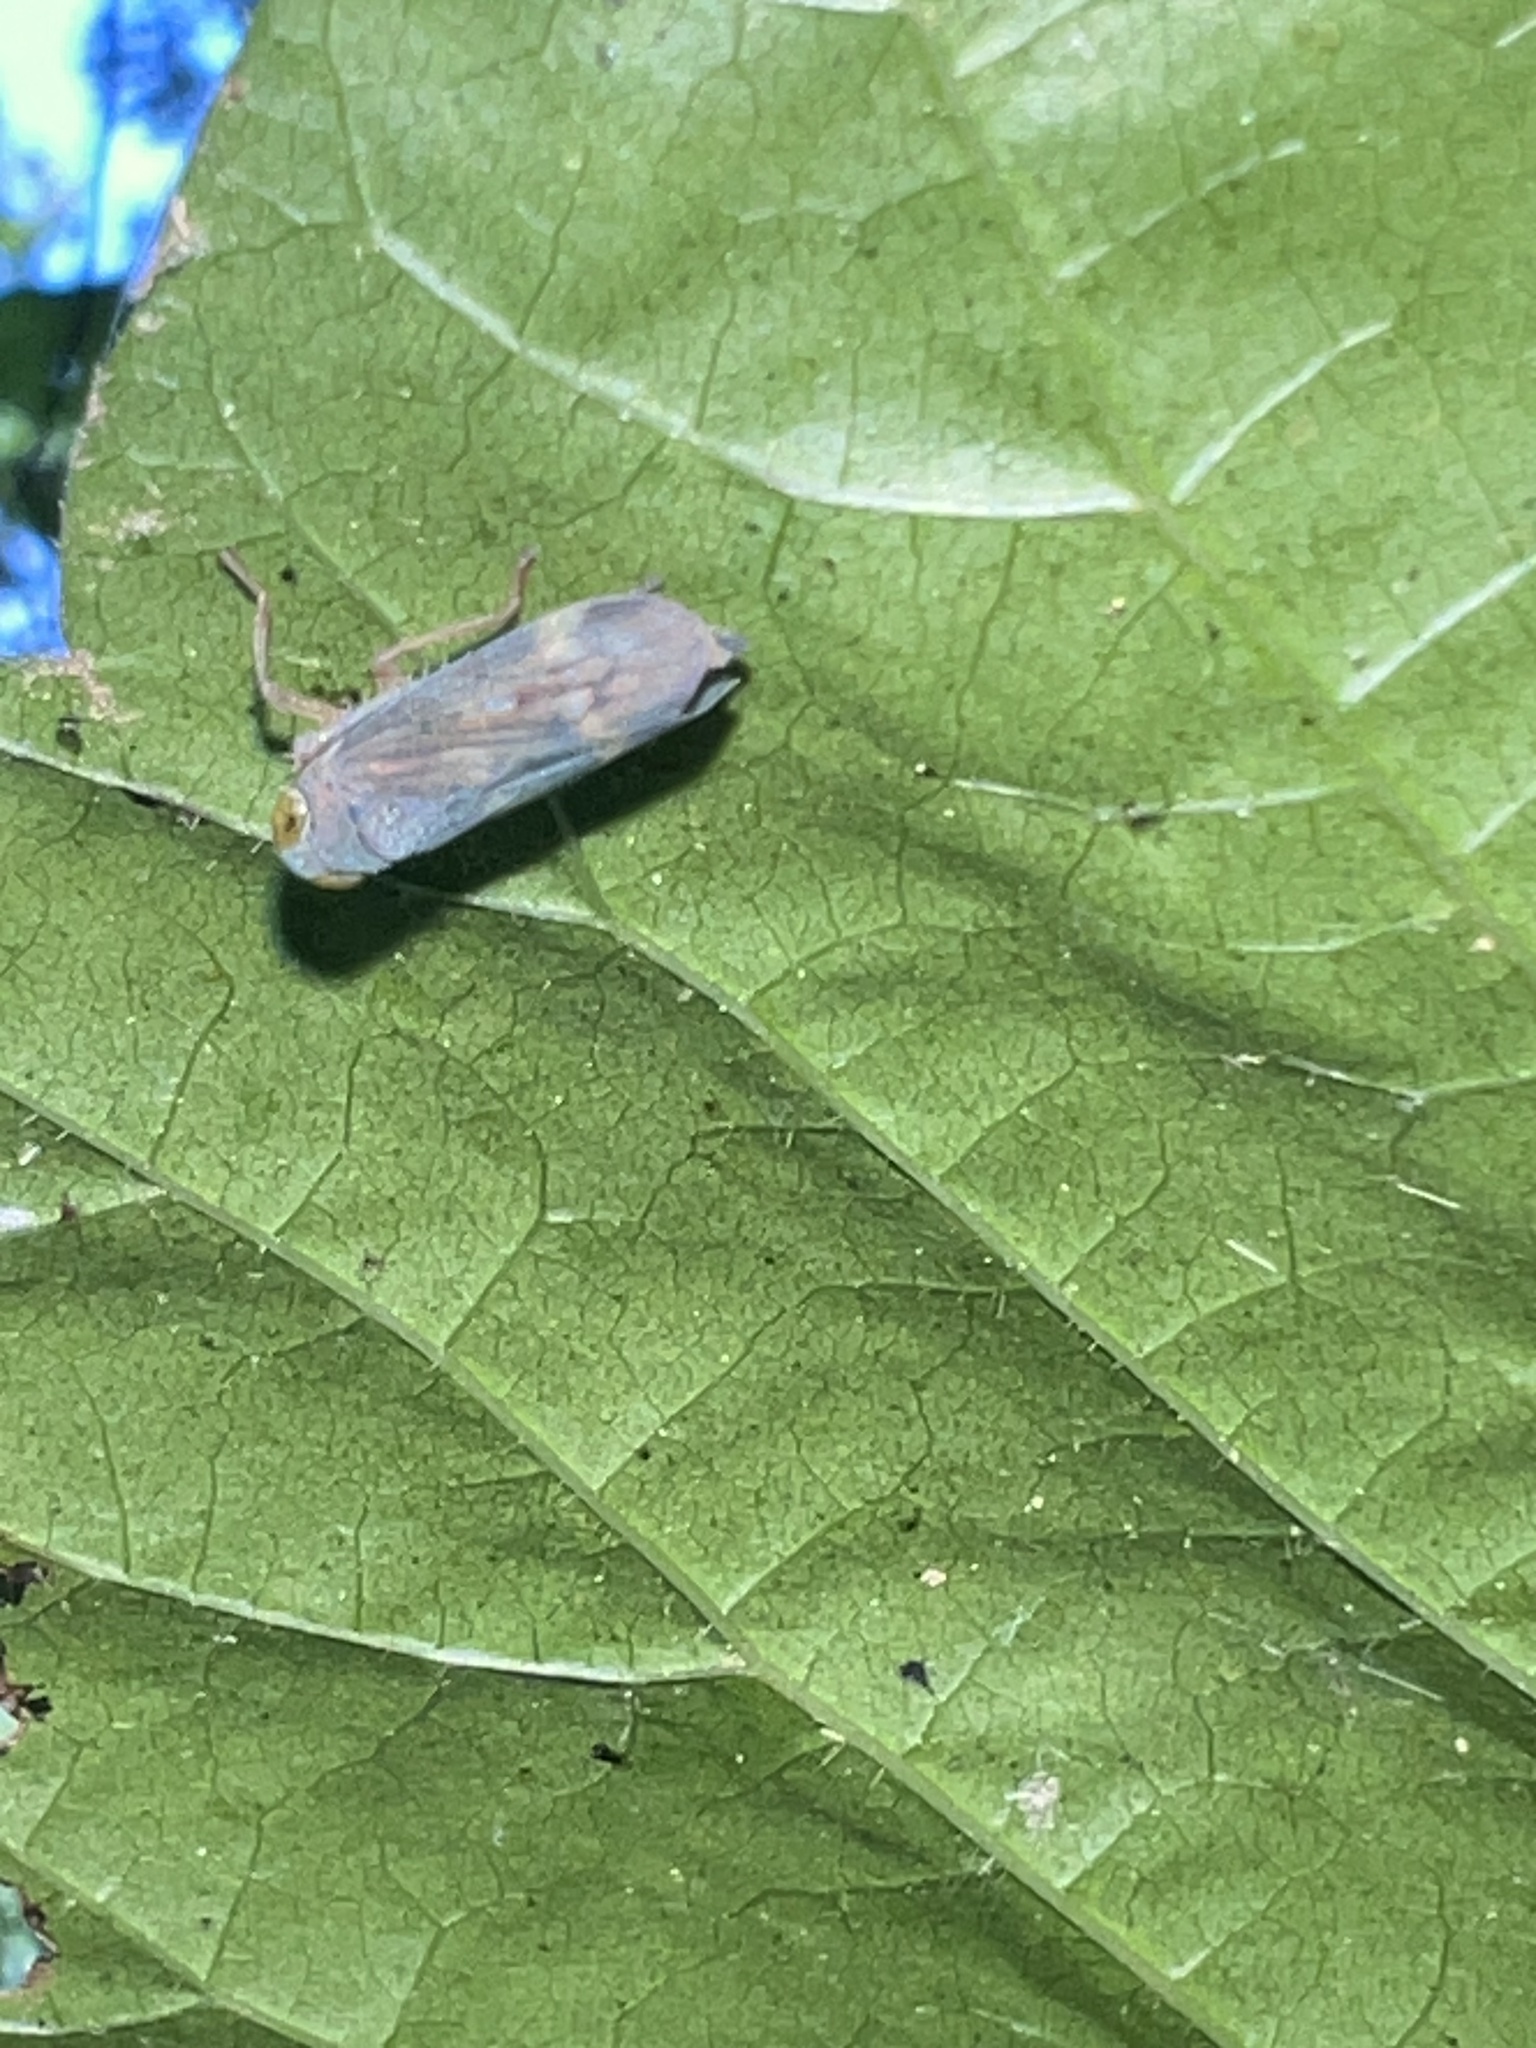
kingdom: Animalia
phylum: Arthropoda
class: Insecta
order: Hemiptera
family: Cicadellidae
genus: Jikradia
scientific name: Jikradia olitoria
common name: Coppery leafhopper
